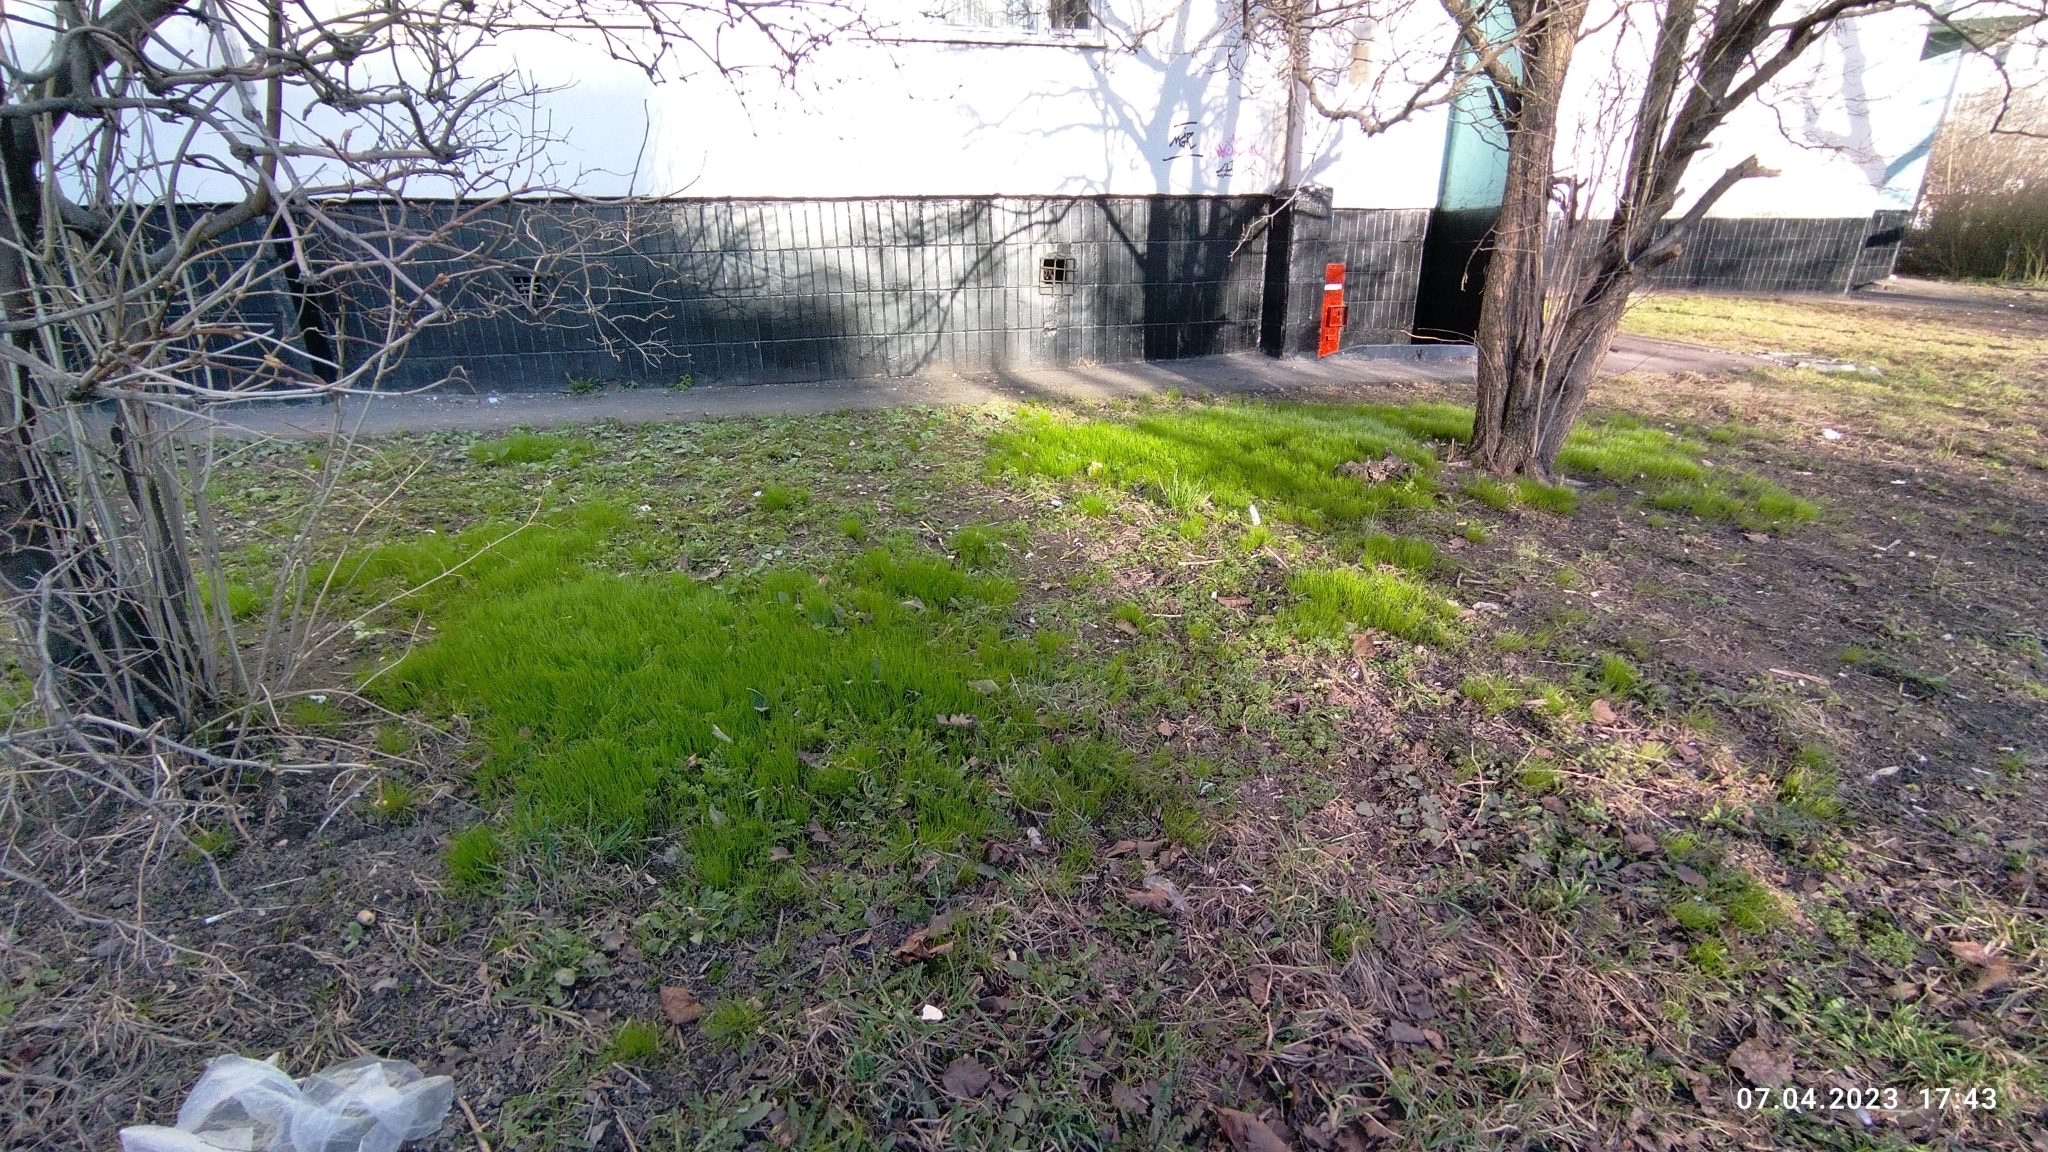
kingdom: Plantae
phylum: Tracheophyta
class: Liliopsida
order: Liliales
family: Liliaceae
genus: Gagea
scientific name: Gagea minima
